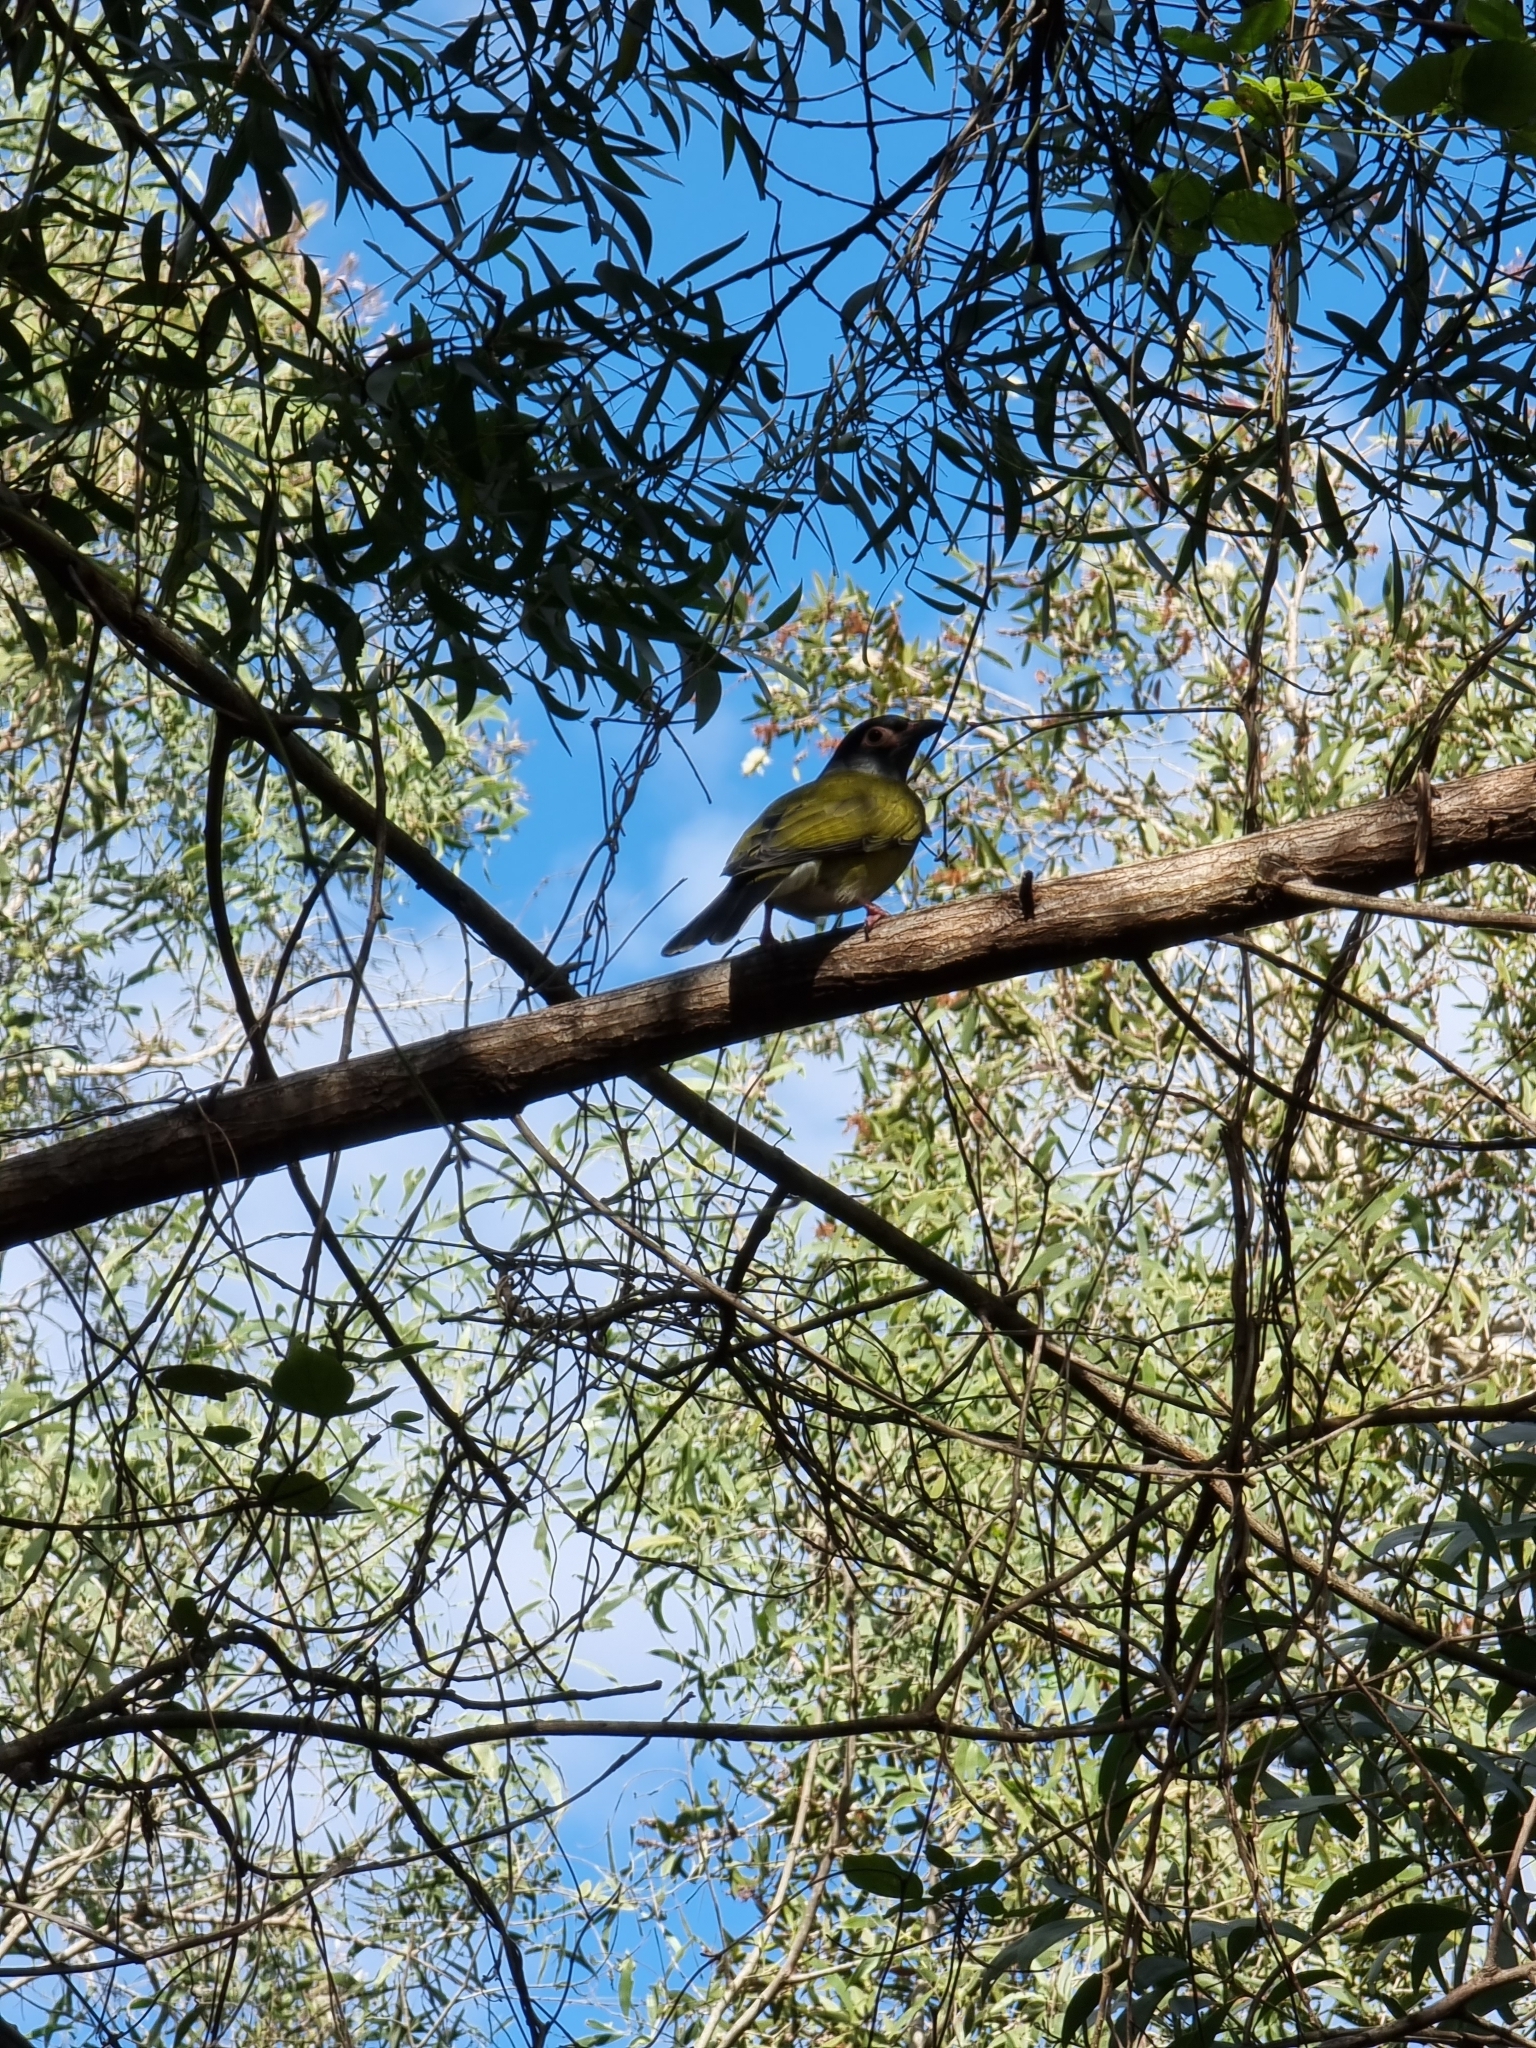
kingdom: Animalia
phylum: Chordata
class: Aves
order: Passeriformes
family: Oriolidae
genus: Sphecotheres
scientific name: Sphecotheres vieilloti
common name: Australasian figbird
